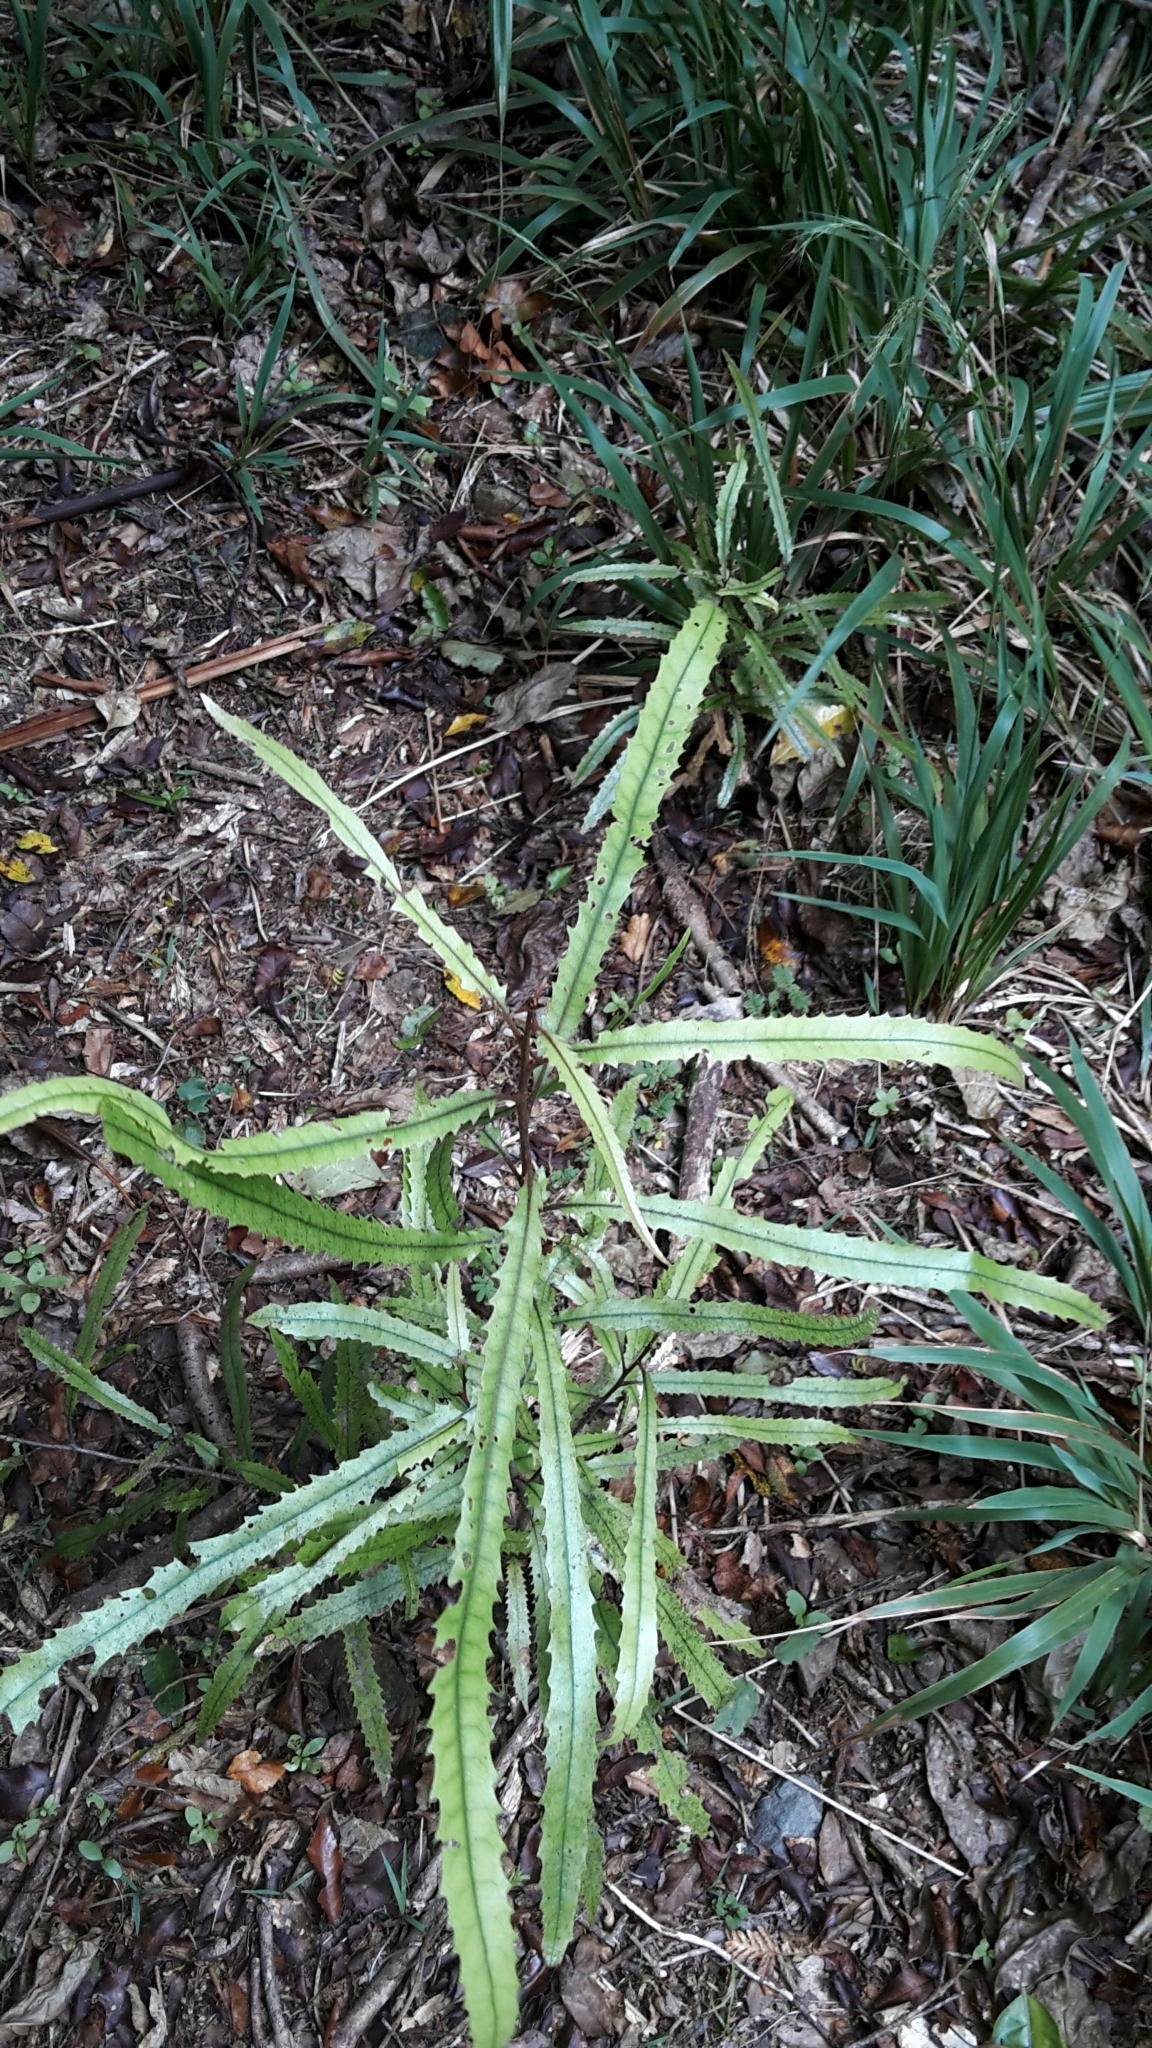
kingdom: Plantae
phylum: Tracheophyta
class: Magnoliopsida
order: Proteales
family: Proteaceae
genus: Knightia
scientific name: Knightia excelsa
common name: New zealand-honeysuckle
